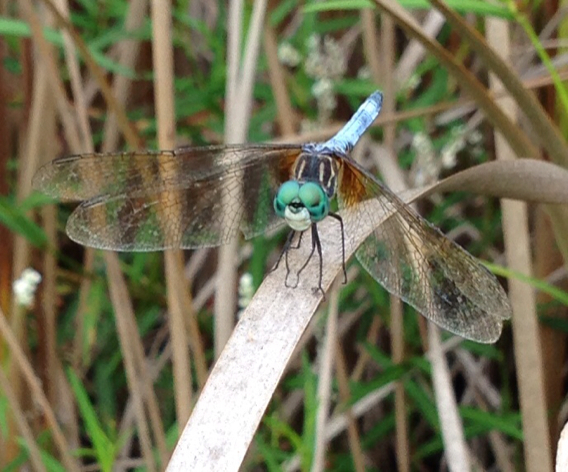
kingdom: Animalia
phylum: Arthropoda
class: Insecta
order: Odonata
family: Libellulidae
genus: Pachydiplax
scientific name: Pachydiplax longipennis
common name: Blue dasher
